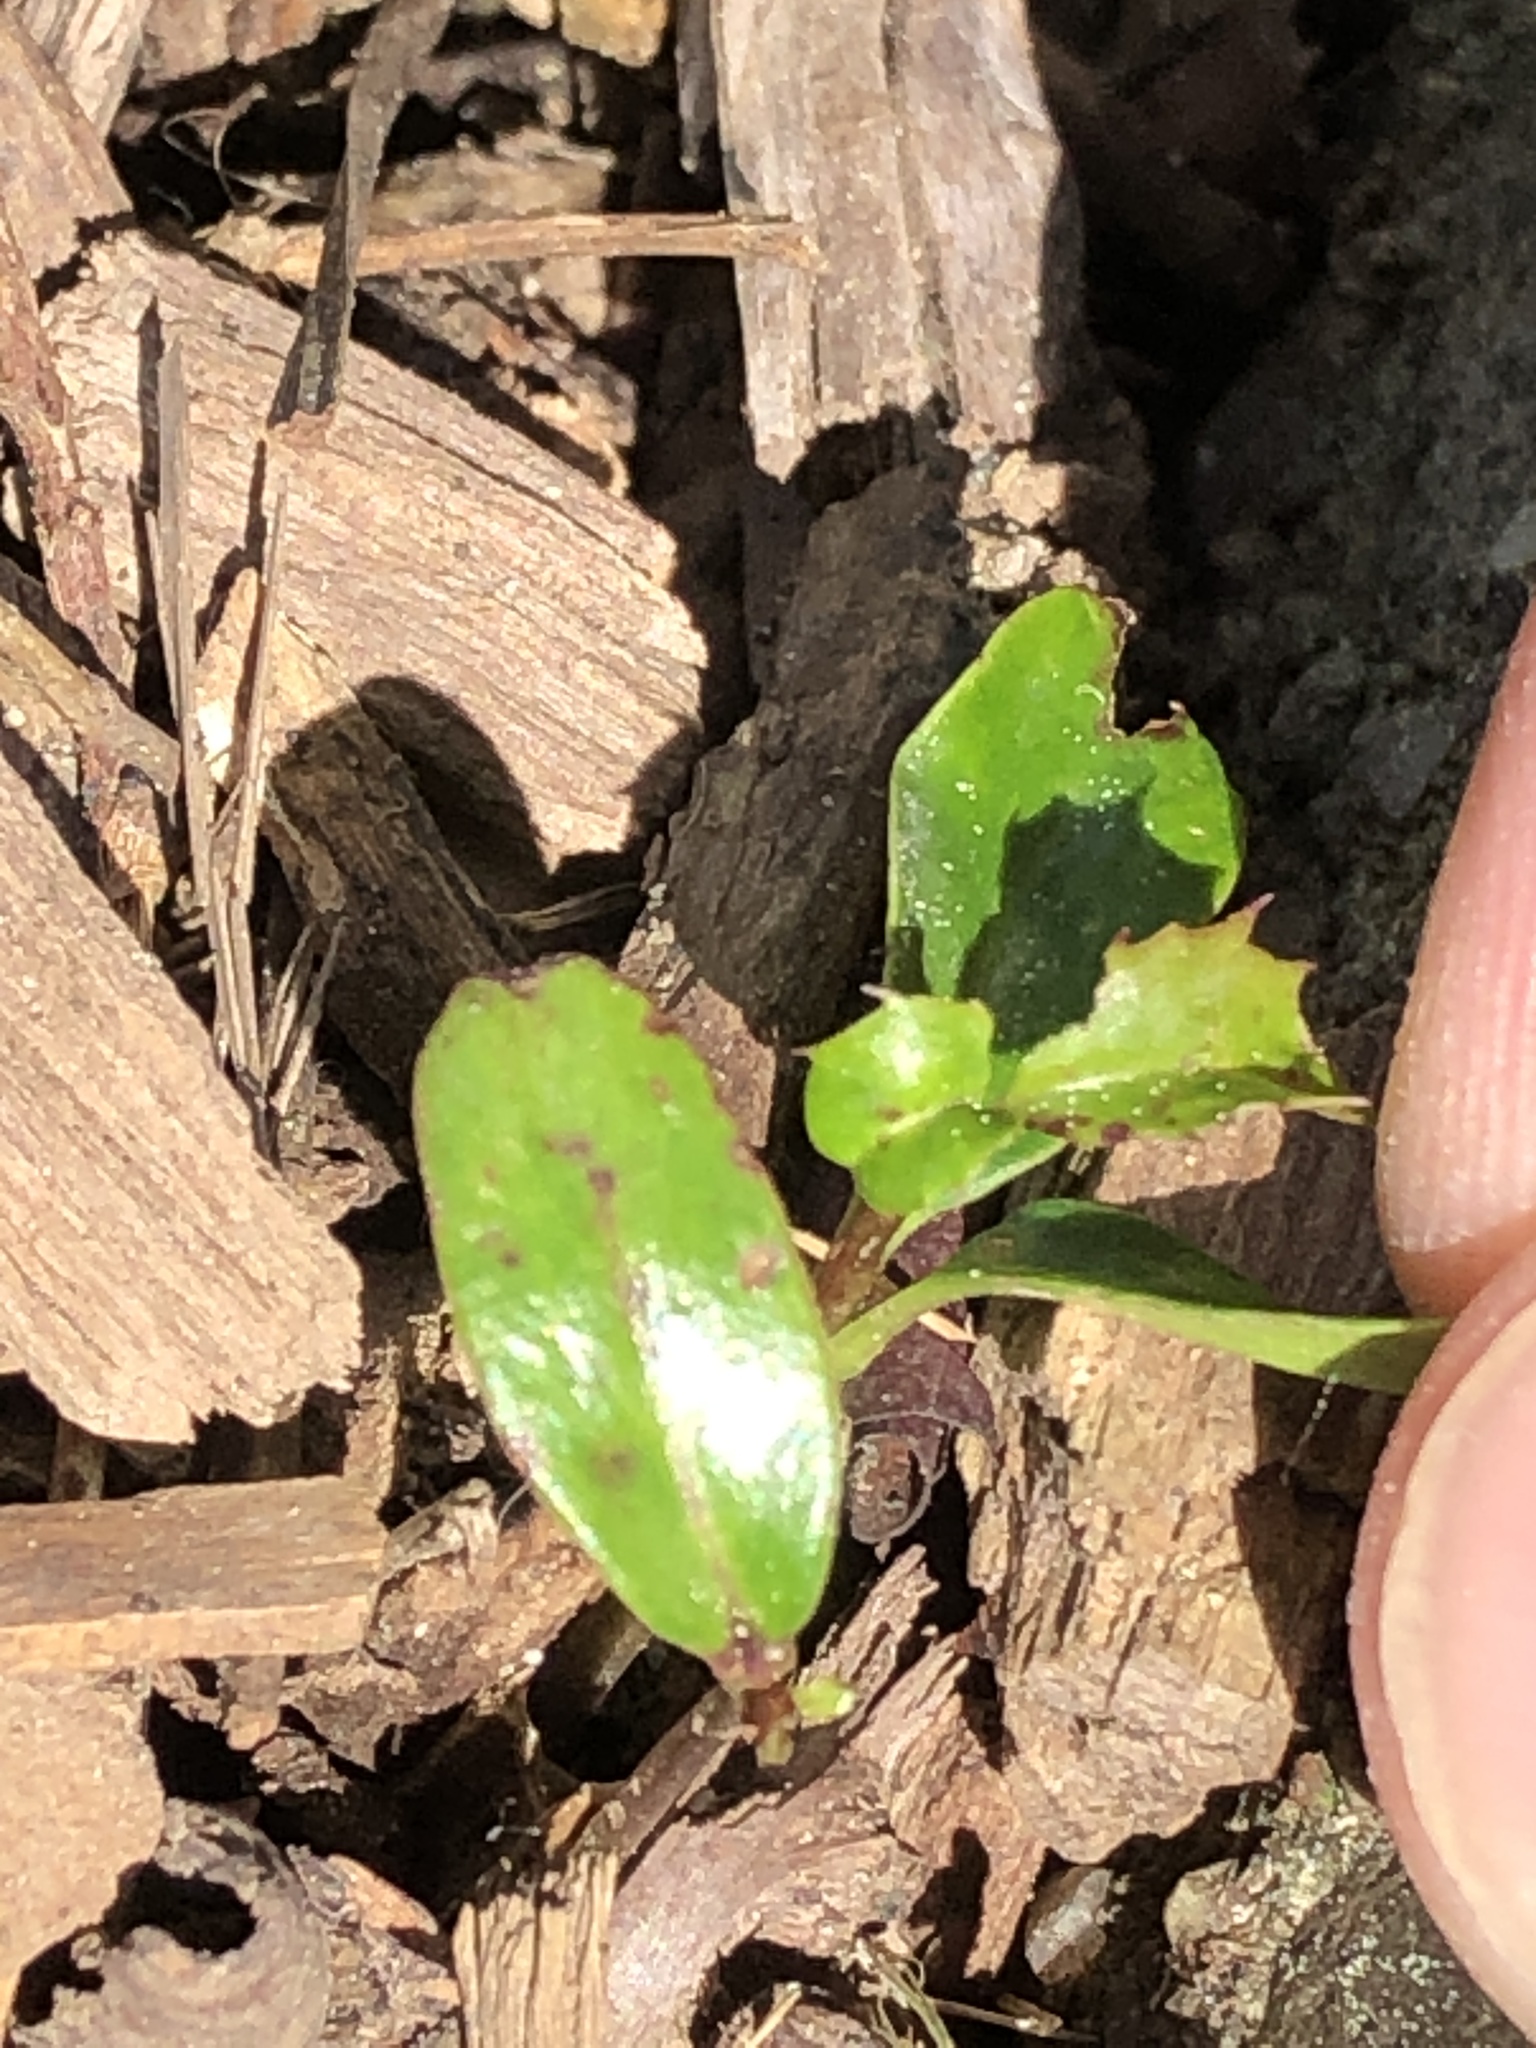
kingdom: Plantae
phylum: Tracheophyta
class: Magnoliopsida
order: Aquifoliales
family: Aquifoliaceae
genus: Ilex
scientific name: Ilex aquifolium
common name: English holly
